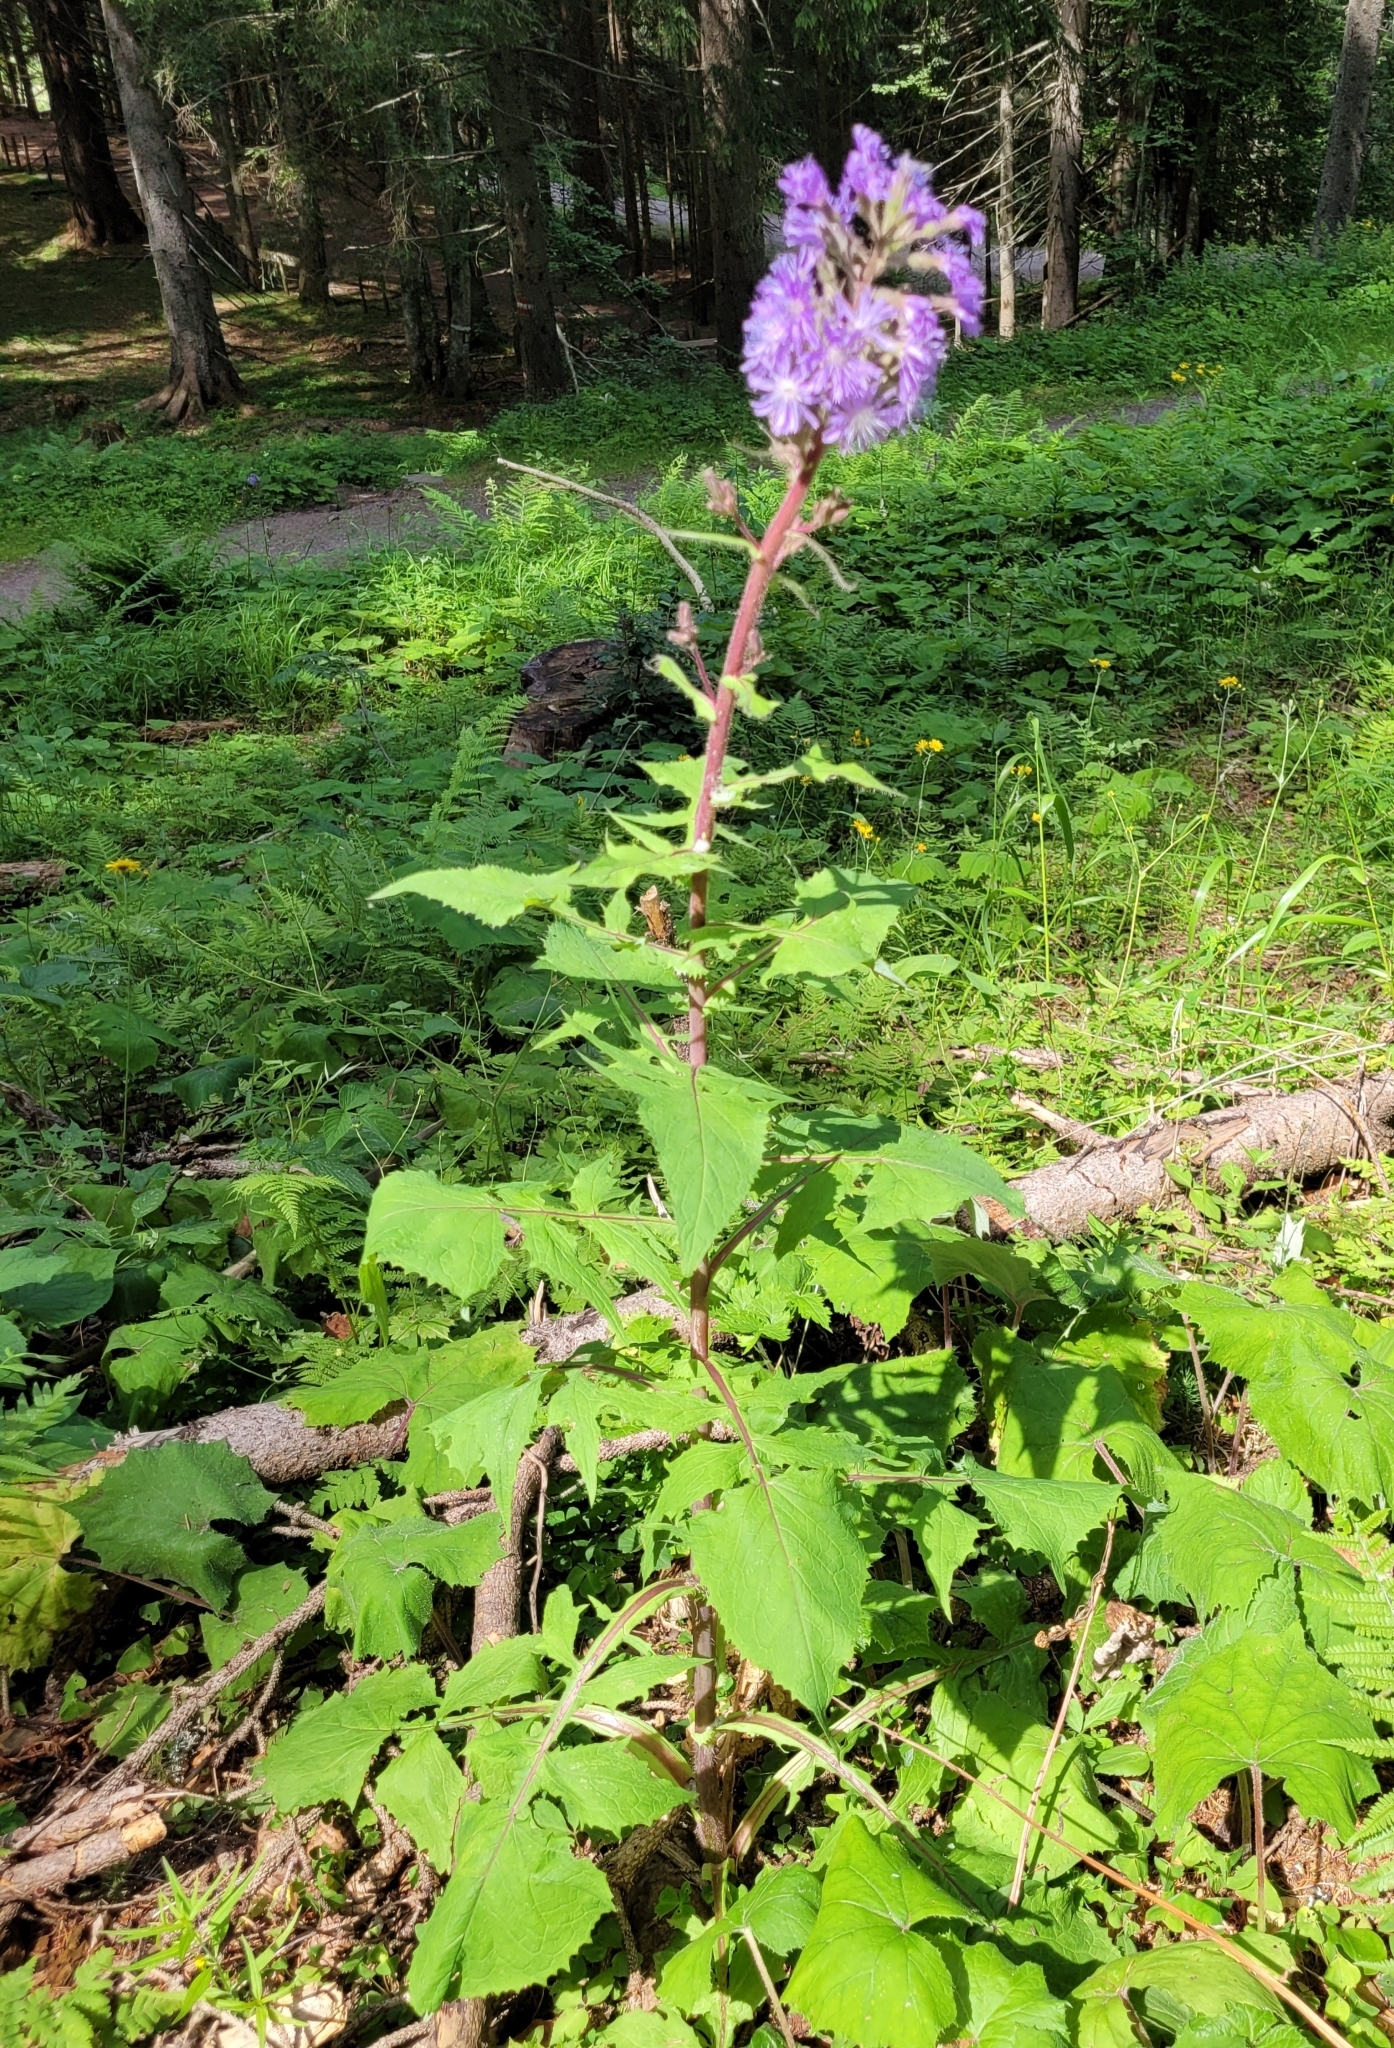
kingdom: Plantae
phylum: Tracheophyta
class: Magnoliopsida
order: Asterales
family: Asteraceae
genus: Cicerbita
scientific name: Cicerbita alpina
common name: Alpine blue-sow-thistle
